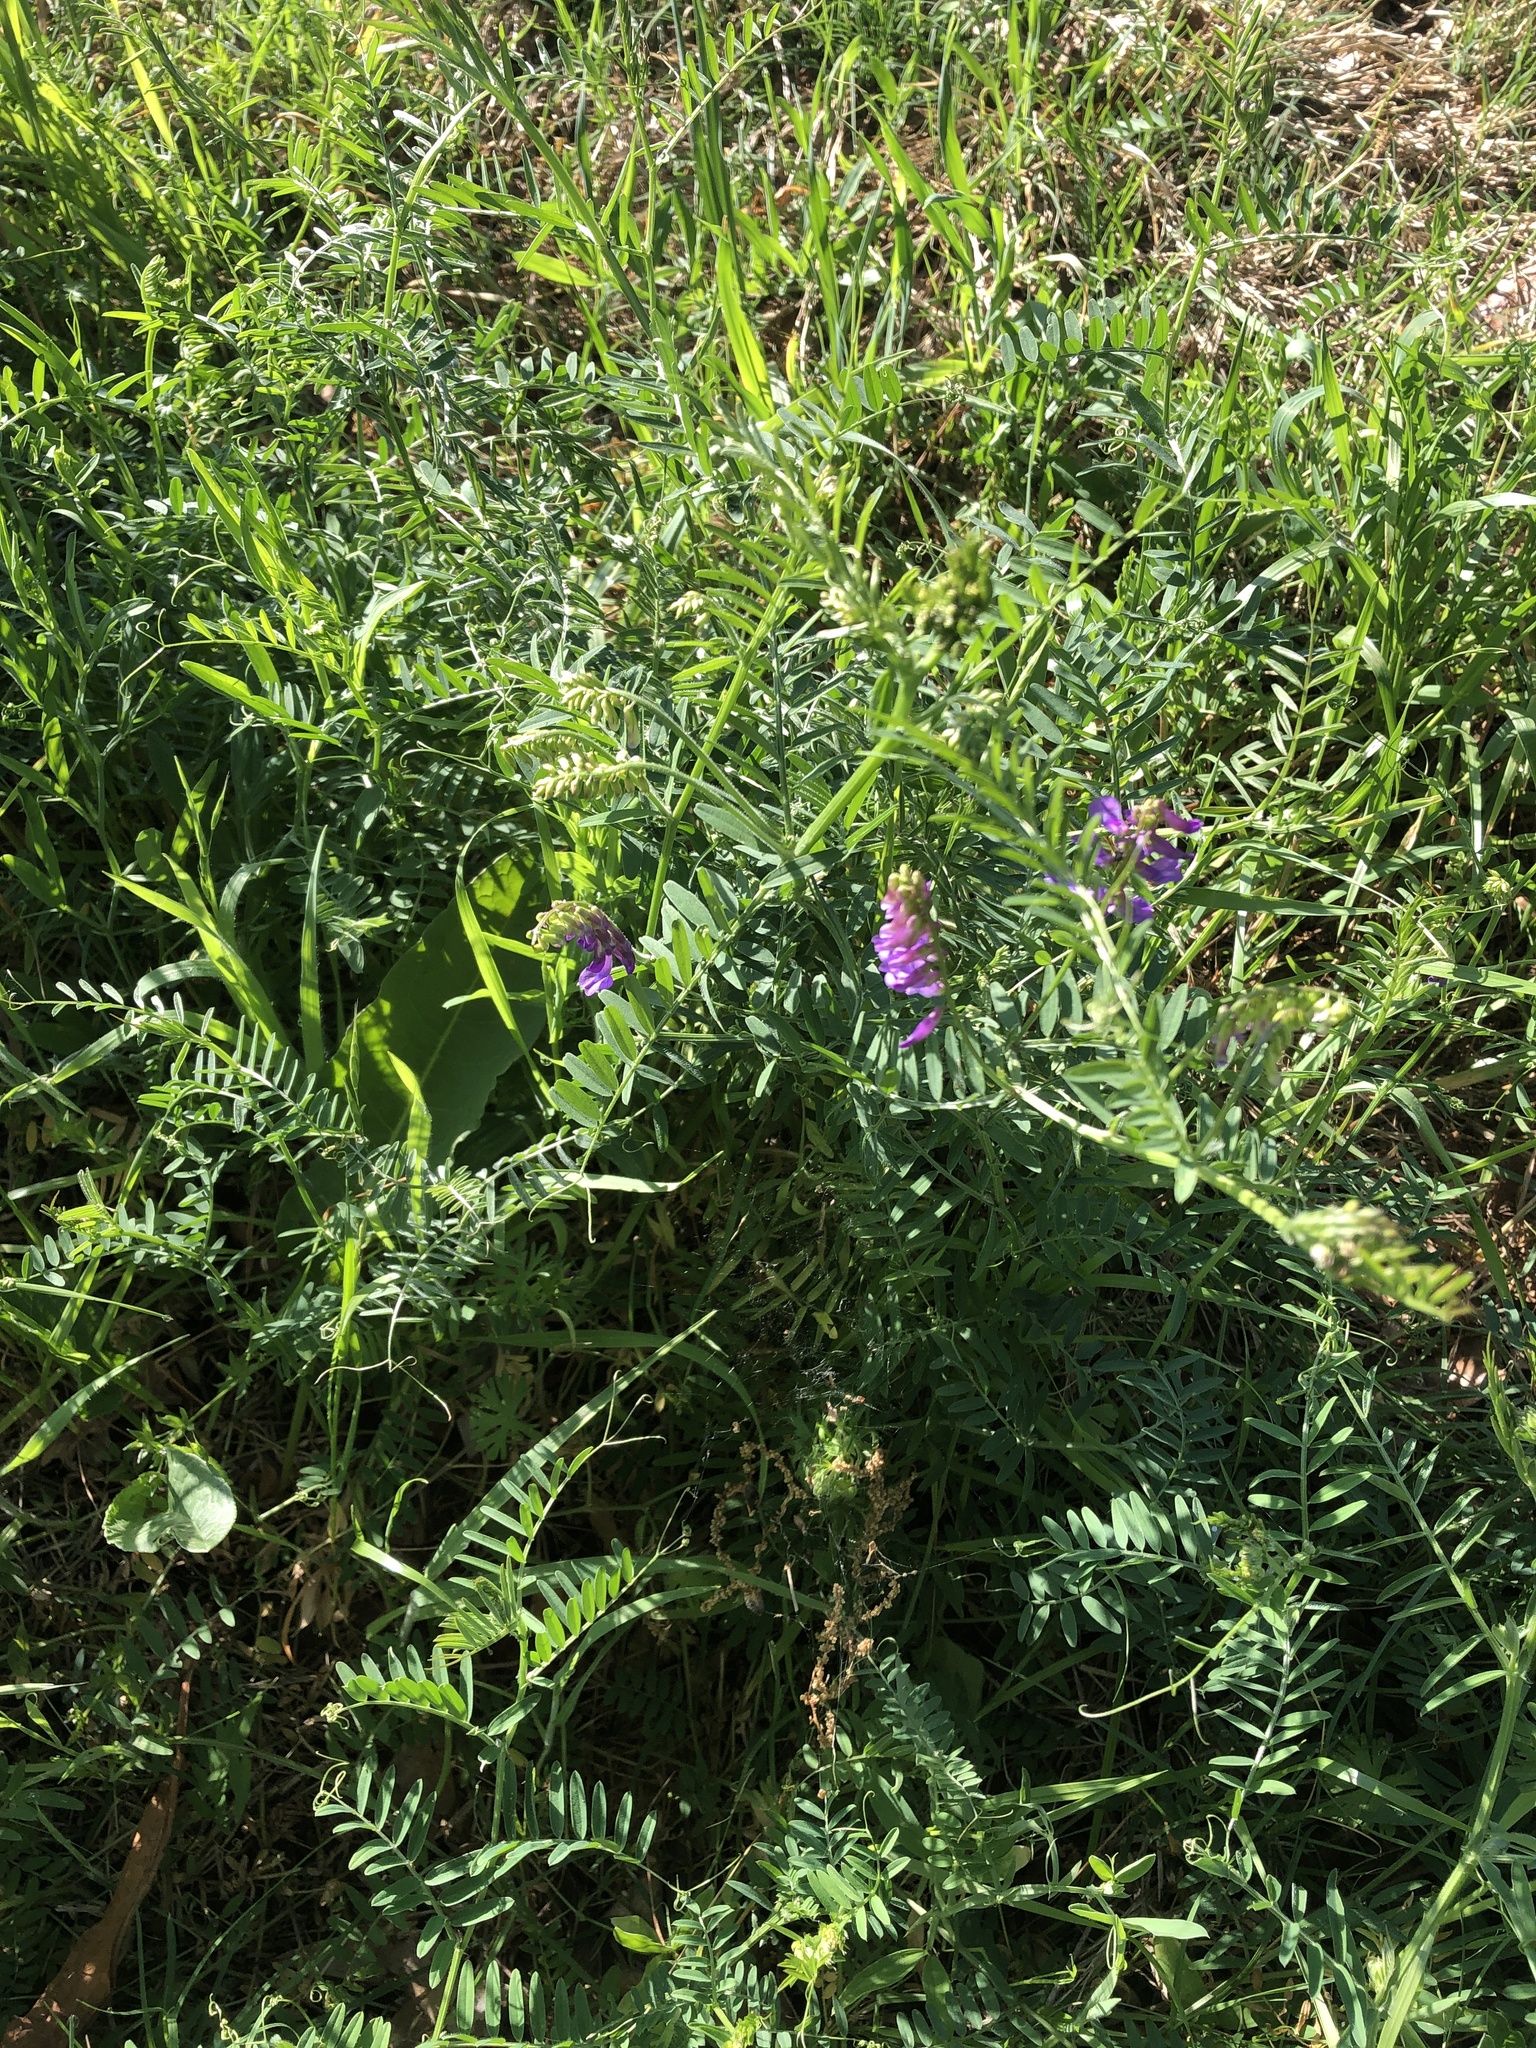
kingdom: Plantae
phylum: Tracheophyta
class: Magnoliopsida
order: Fabales
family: Fabaceae
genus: Vicia
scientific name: Vicia villosa
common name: Fodder vetch
